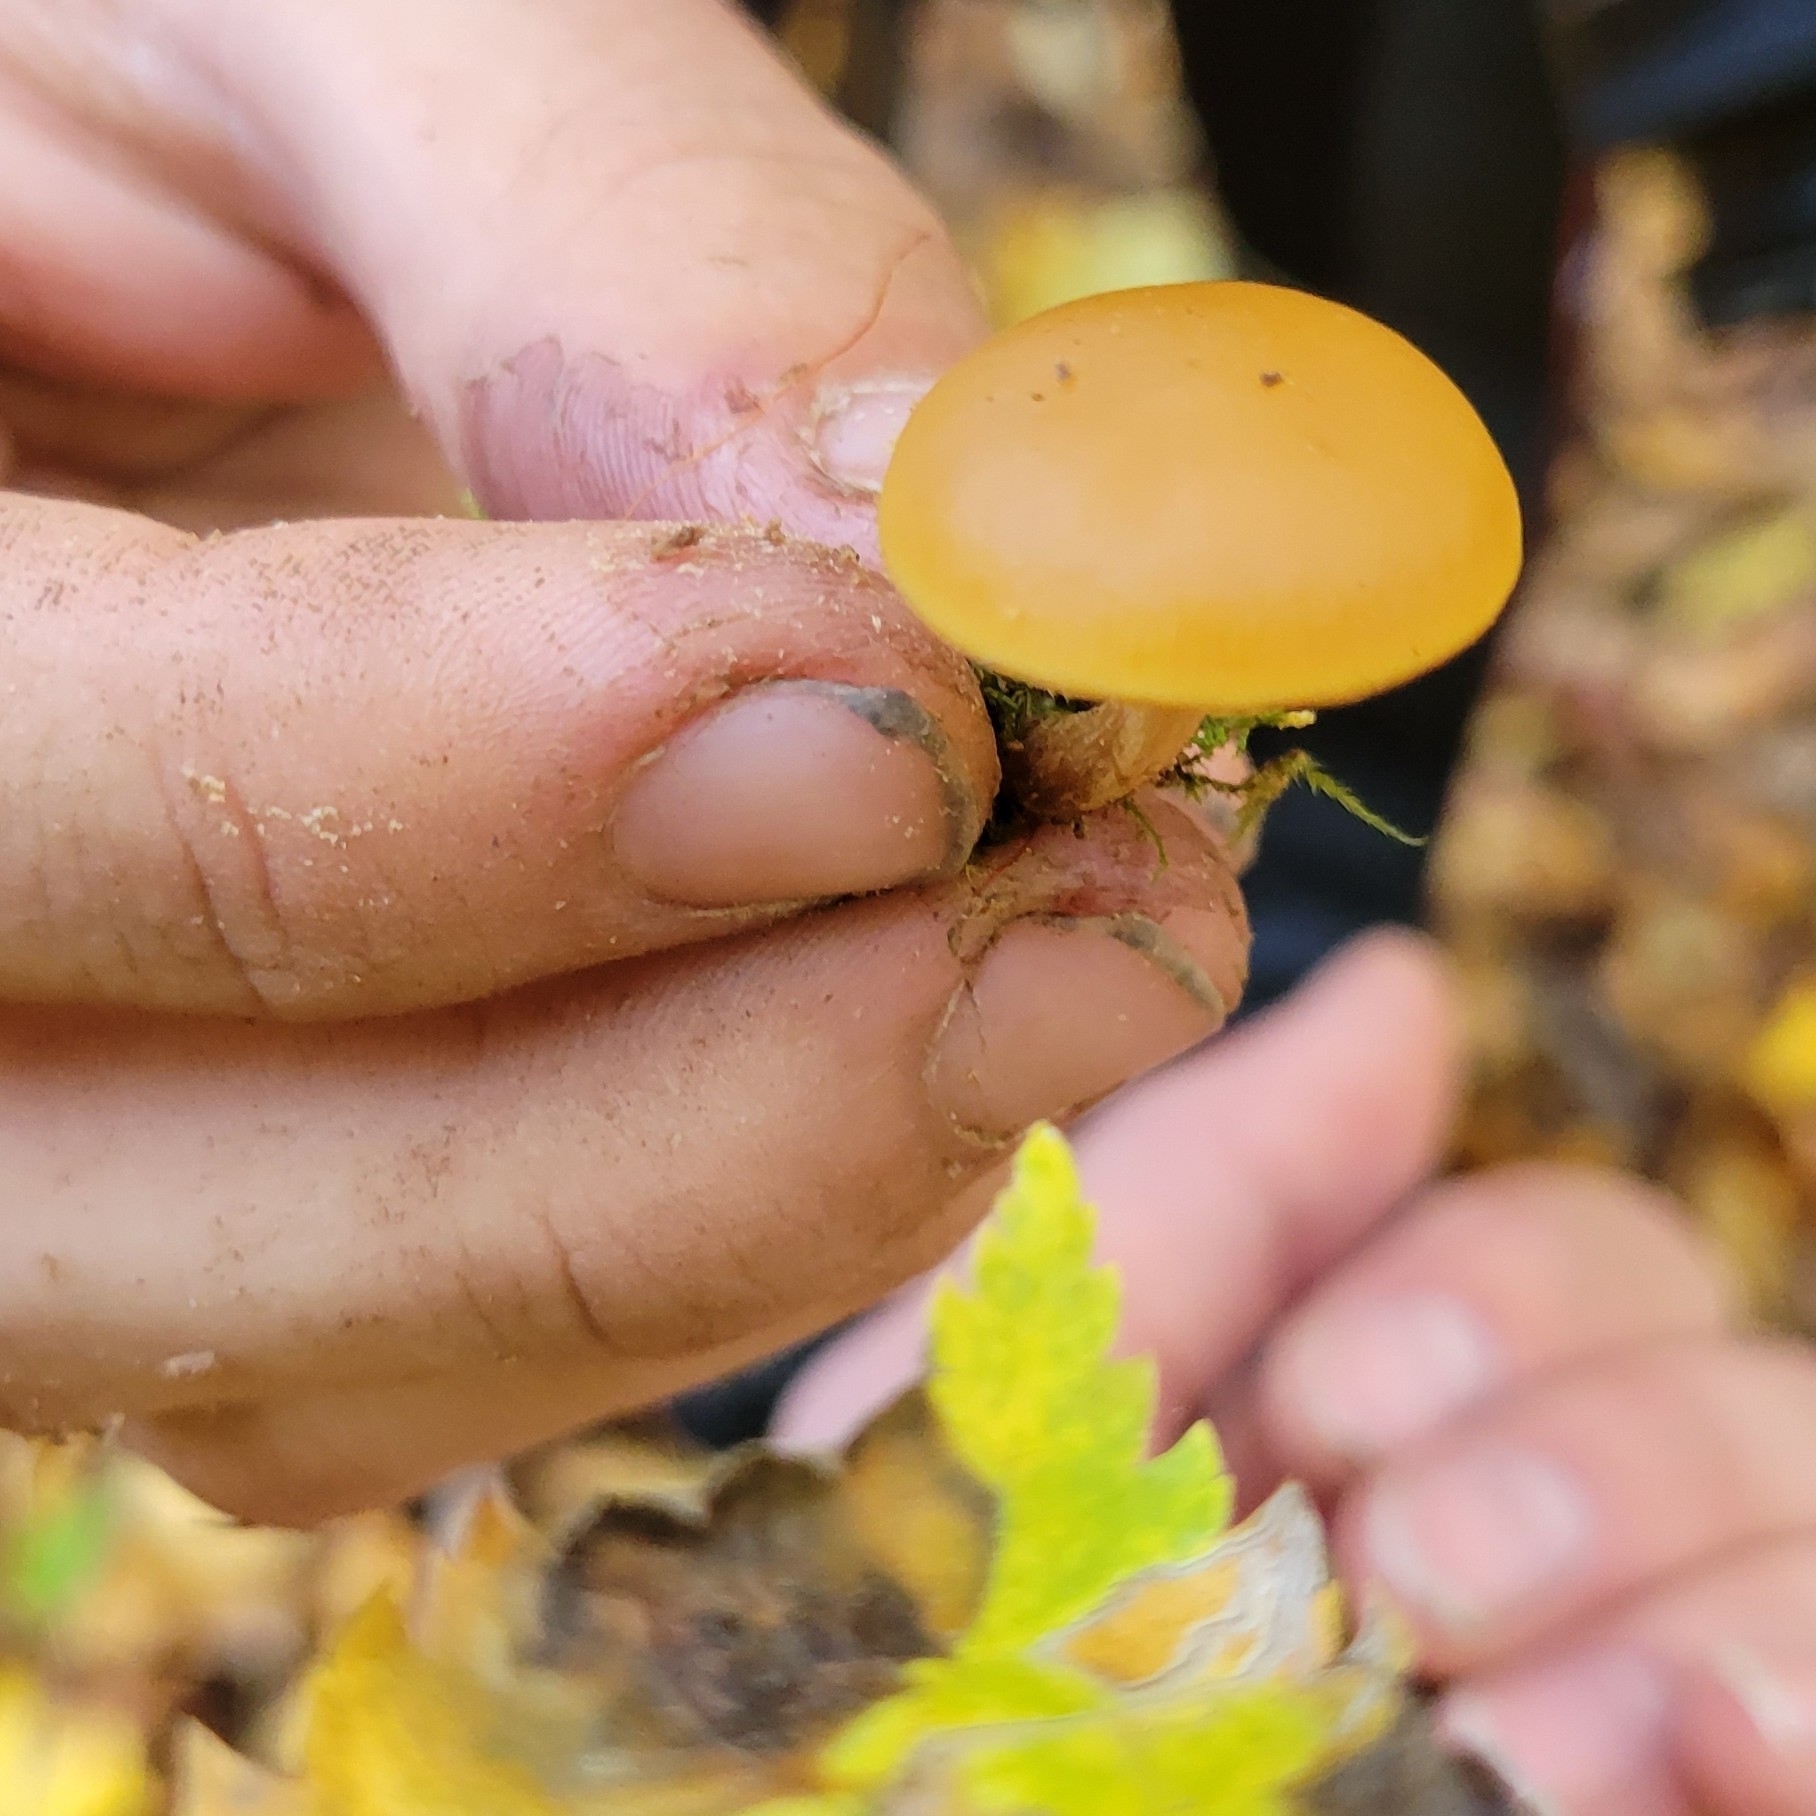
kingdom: Fungi
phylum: Basidiomycota
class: Agaricomycetes
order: Agaricales
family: Hymenogastraceae
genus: Galerina
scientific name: Galerina marginata
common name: Funeral bell
